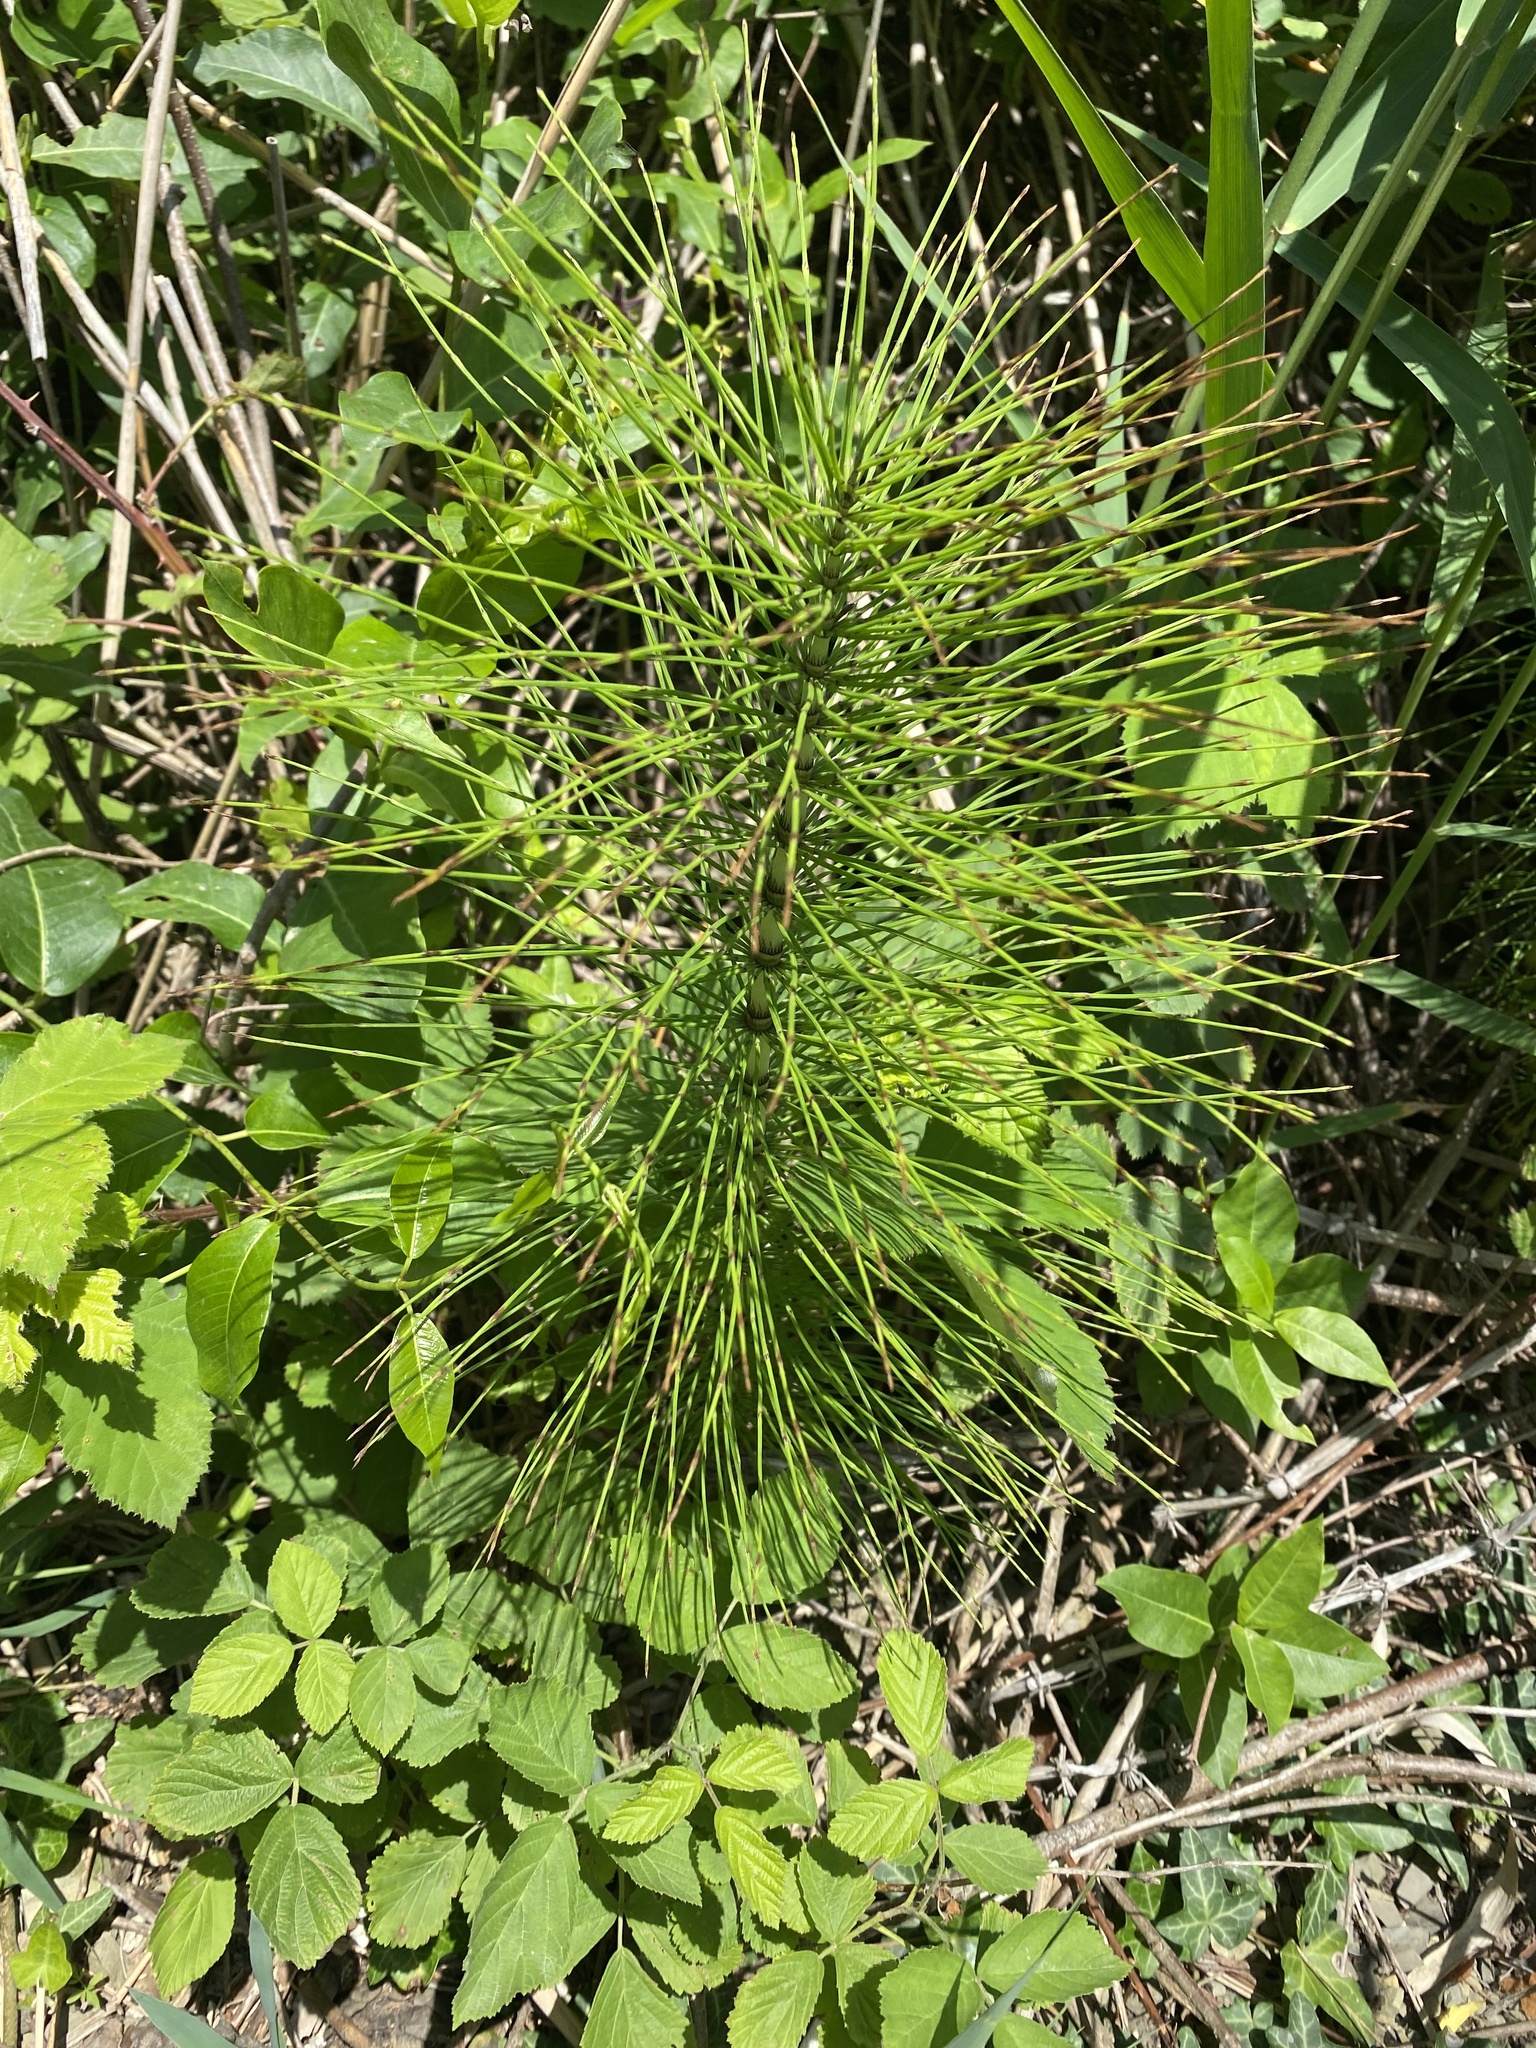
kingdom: Plantae
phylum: Tracheophyta
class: Polypodiopsida
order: Equisetales
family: Equisetaceae
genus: Equisetum
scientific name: Equisetum telmateia
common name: Great horsetail
